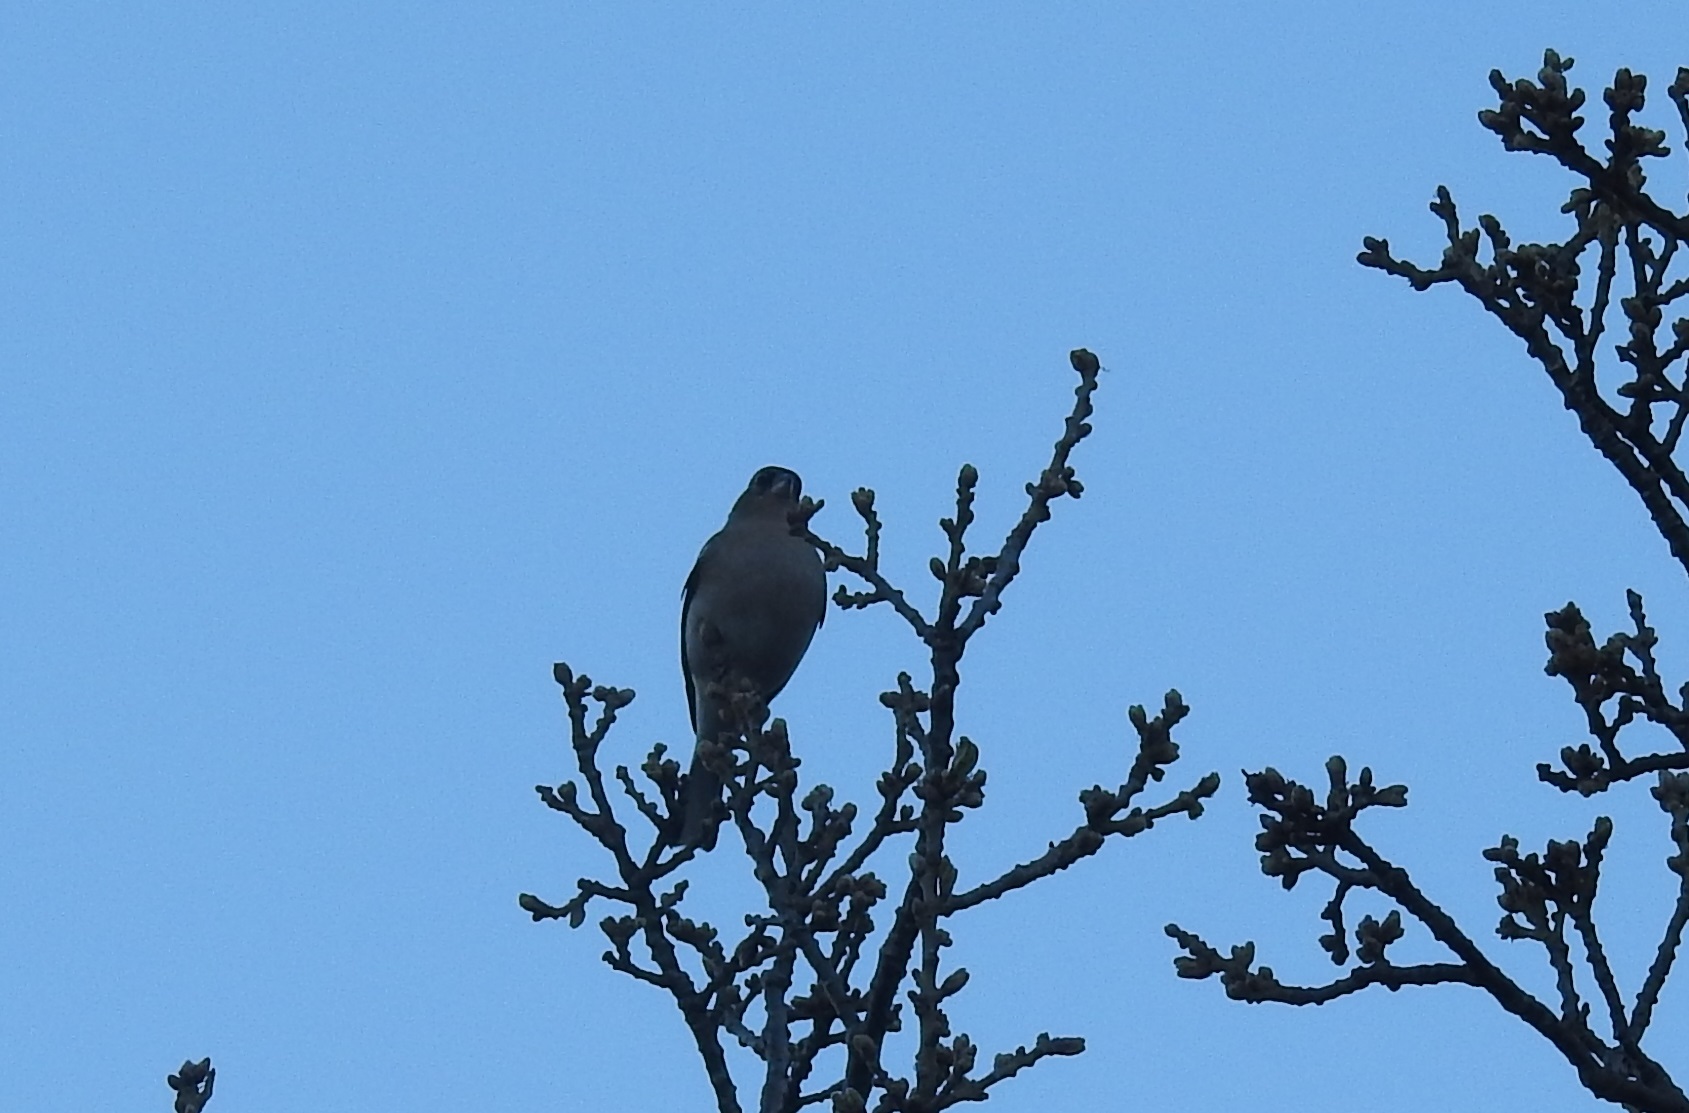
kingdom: Animalia
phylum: Chordata
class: Aves
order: Passeriformes
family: Fringillidae
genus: Fringilla
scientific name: Fringilla spodiogenys
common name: African chaffinch
